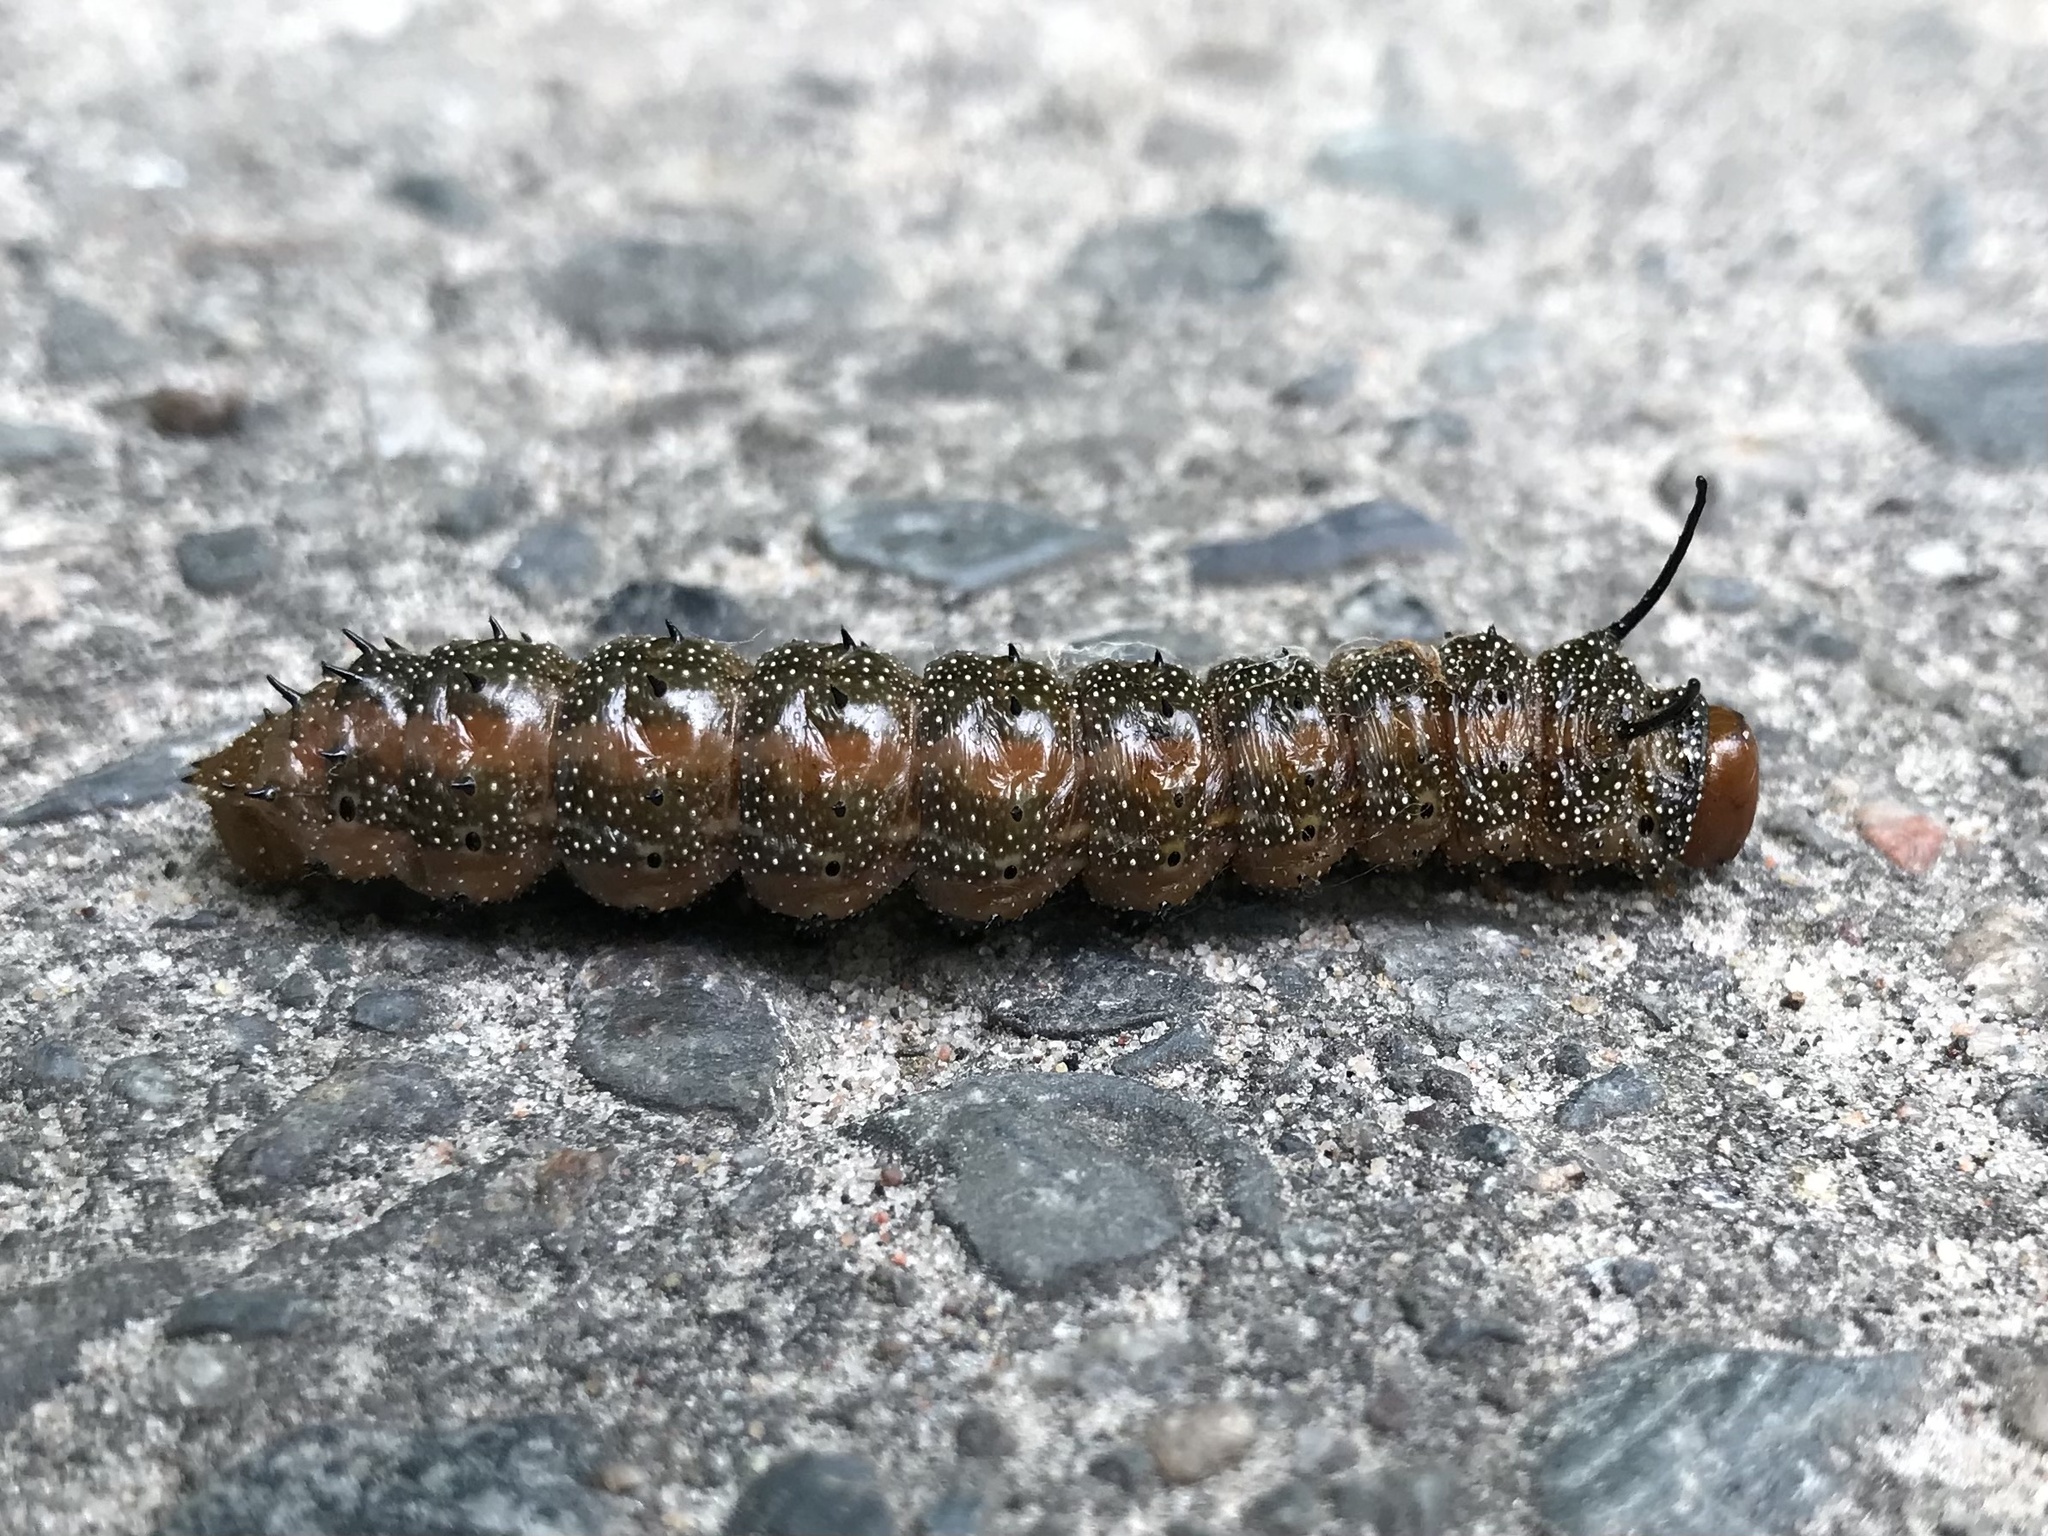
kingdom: Animalia
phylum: Arthropoda
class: Insecta
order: Lepidoptera
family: Saturniidae
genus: Anisota
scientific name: Anisota virginiensis
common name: Pink striped oakworm moth
